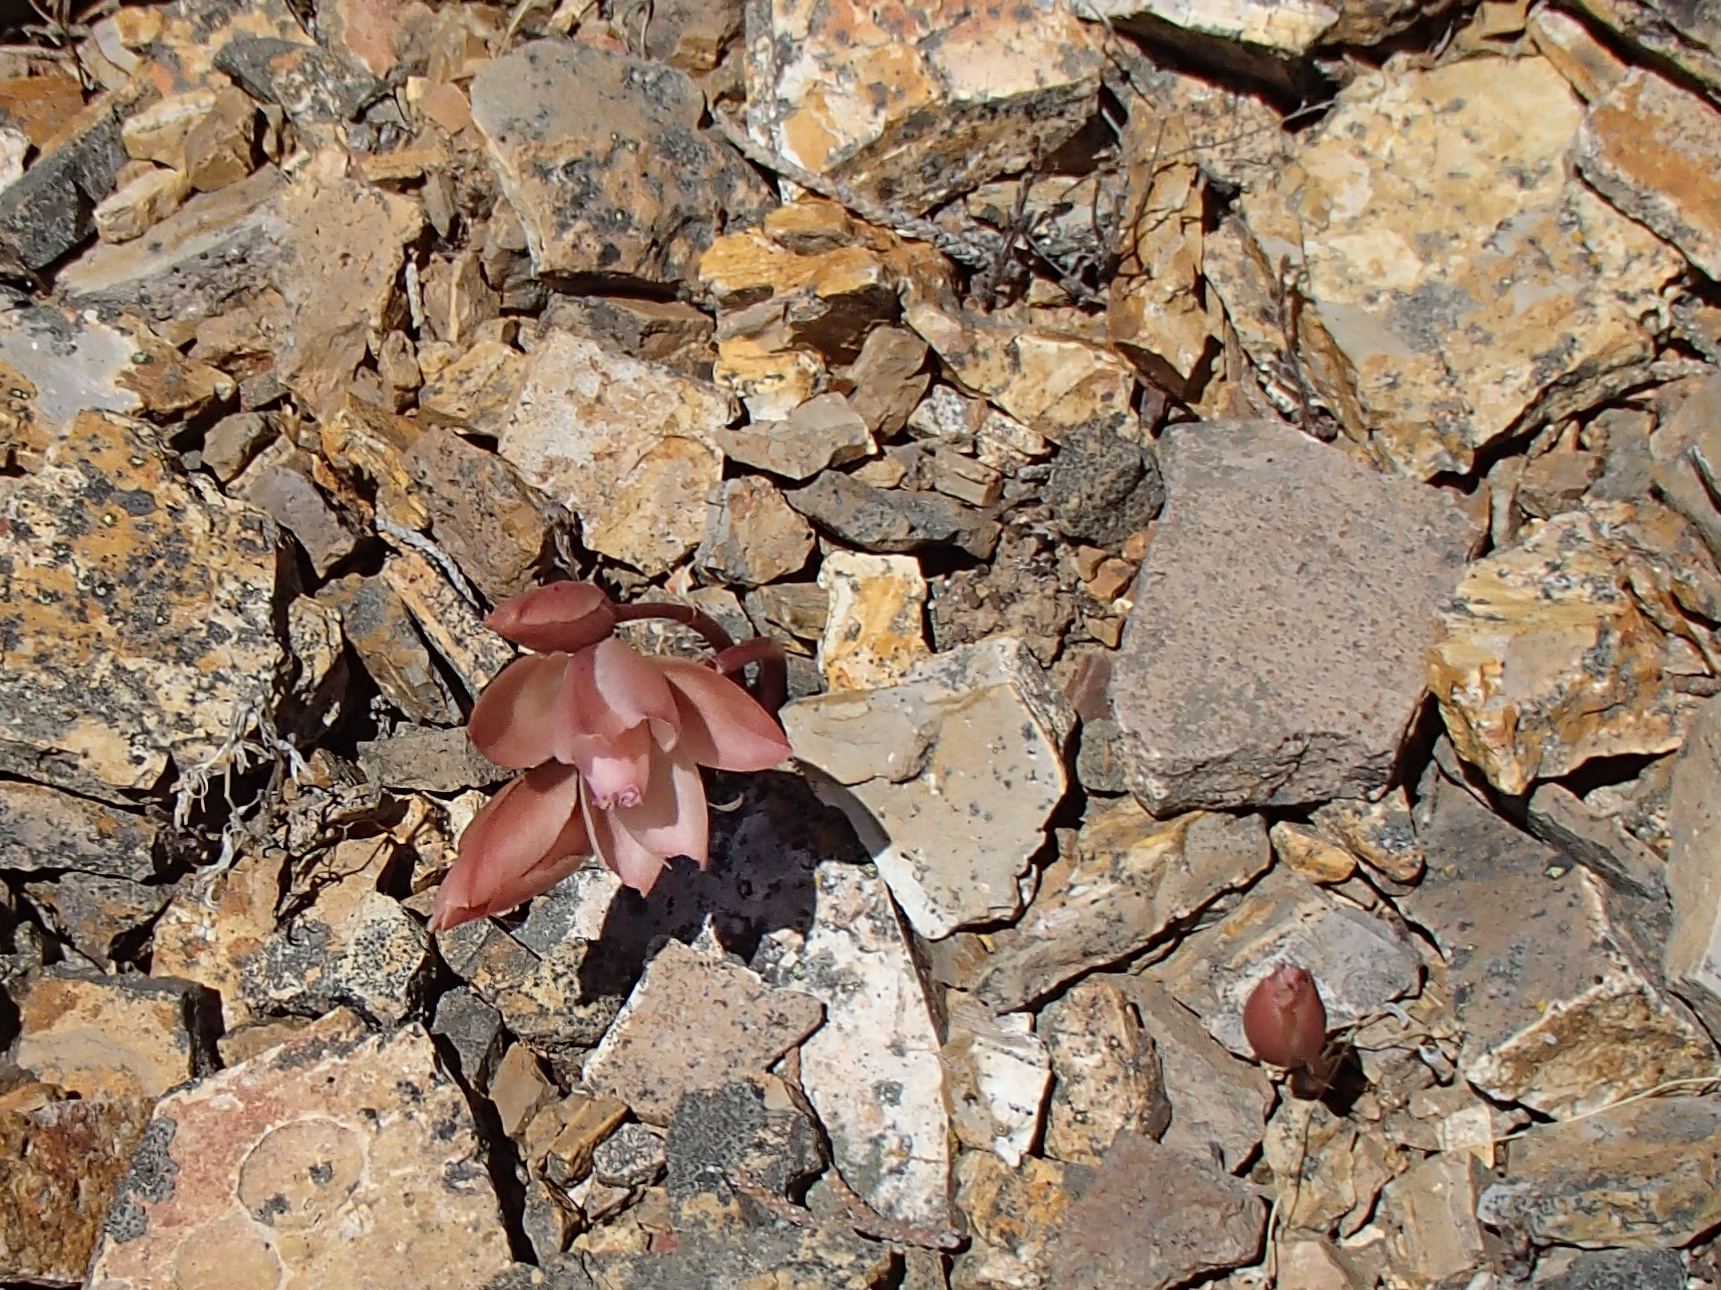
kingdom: Plantae
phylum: Tracheophyta
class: Magnoliopsida
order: Caryophyllales
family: Montiaceae
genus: Lewisia
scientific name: Lewisia rediviva
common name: Bitter-root
